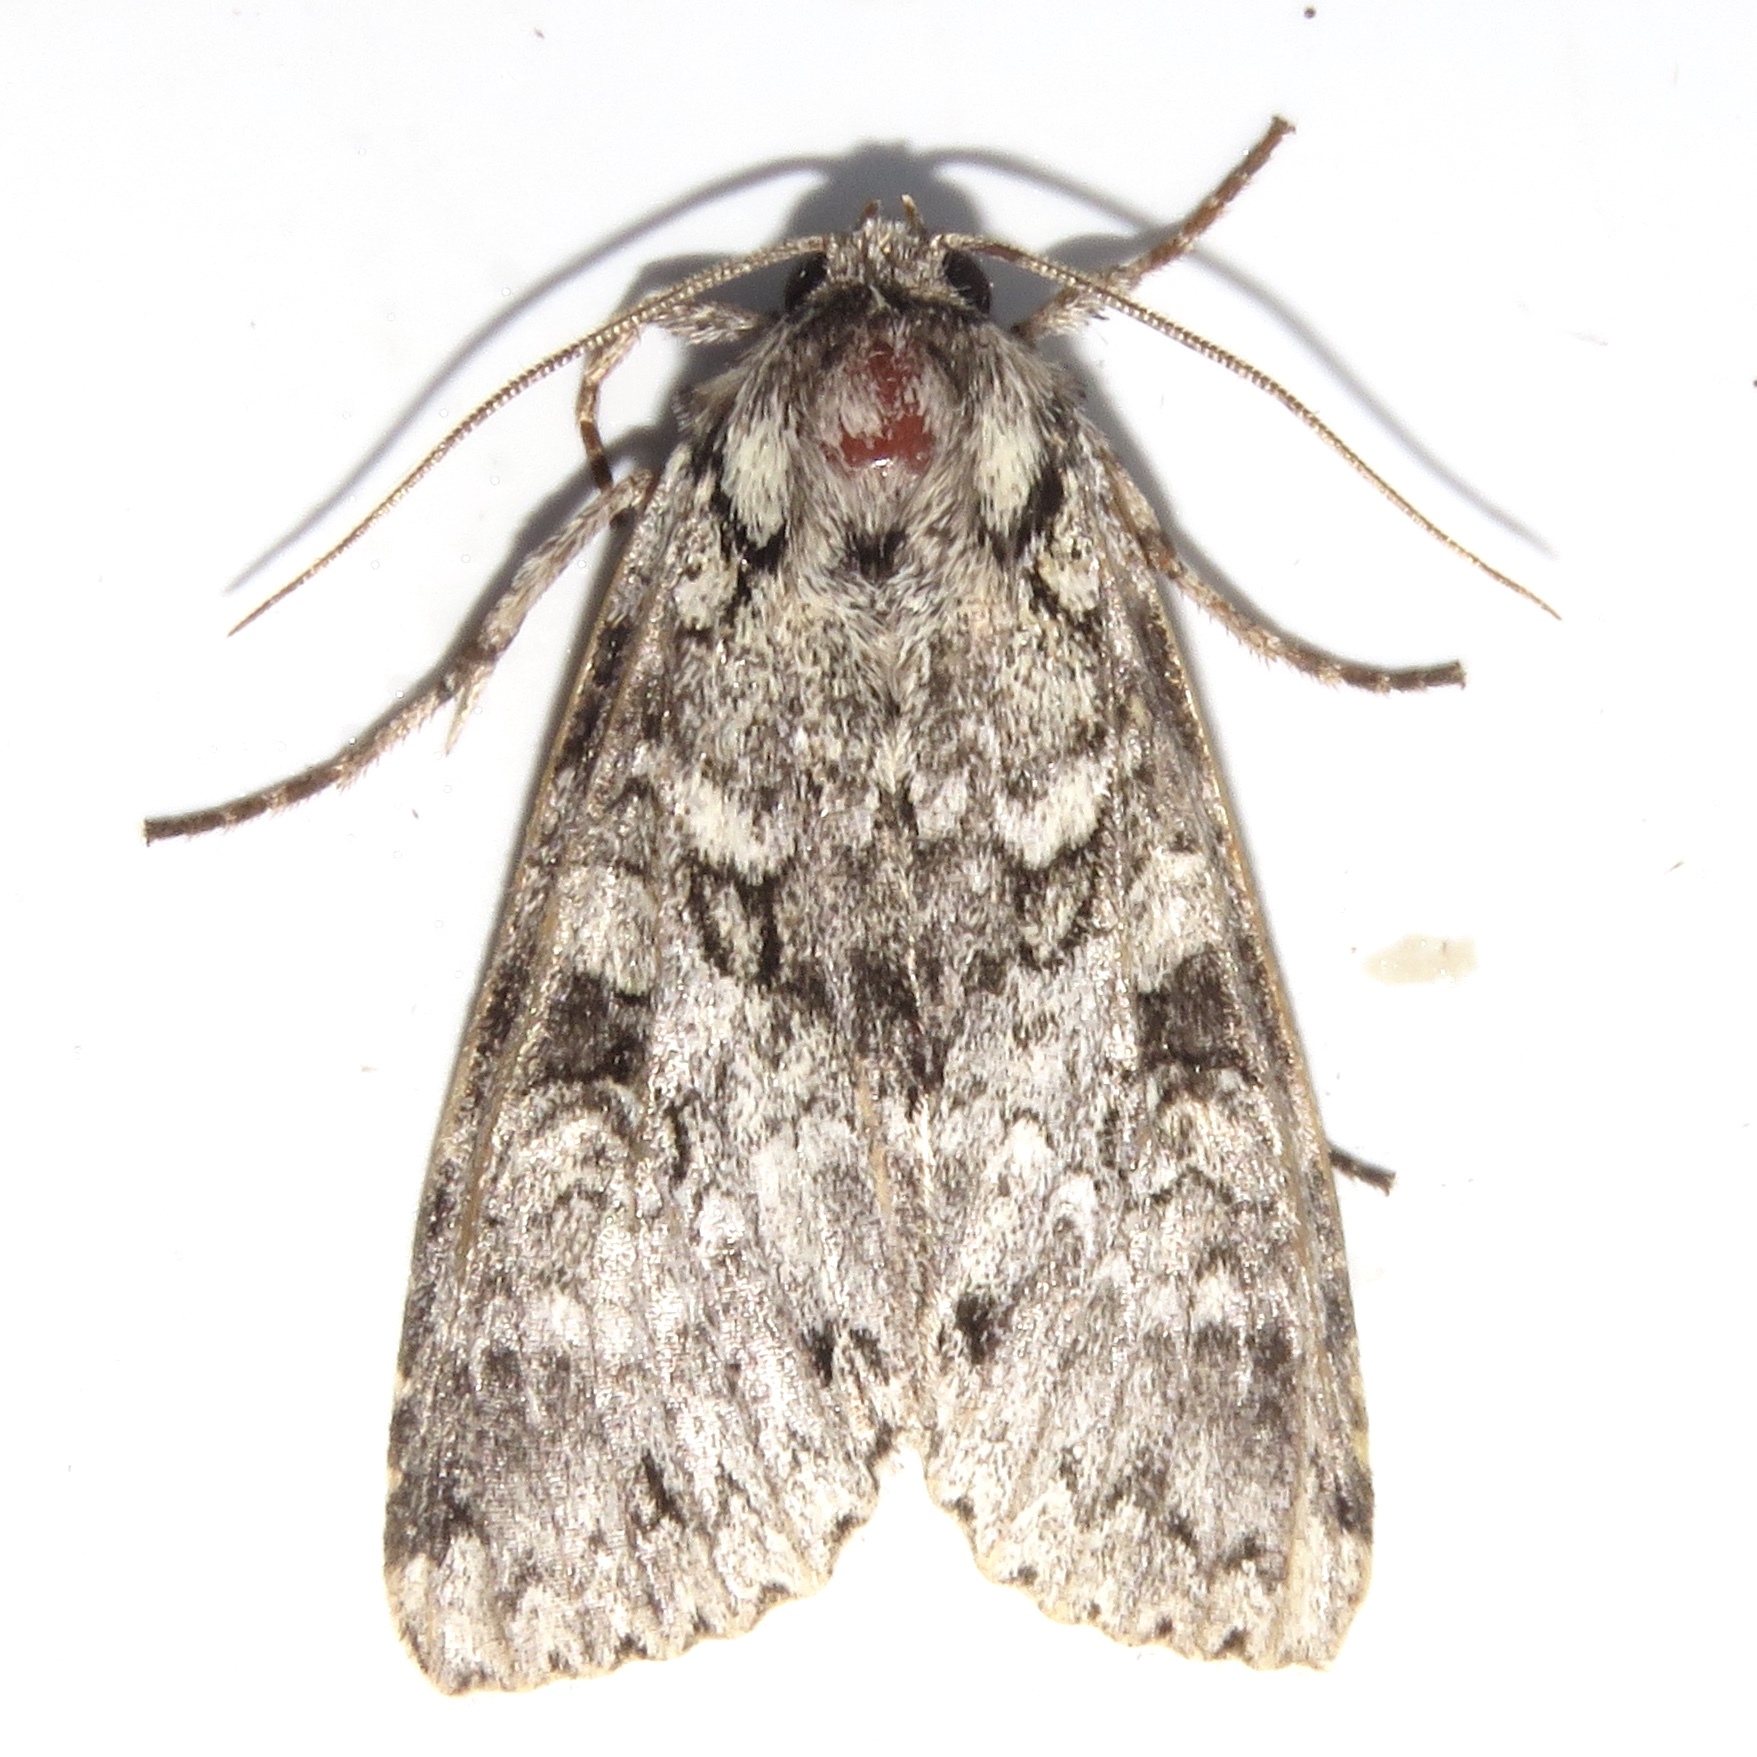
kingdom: Animalia
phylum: Arthropoda
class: Insecta
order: Lepidoptera
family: Noctuidae
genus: Polia
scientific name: Polia nimbosa
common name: Stormy arches
